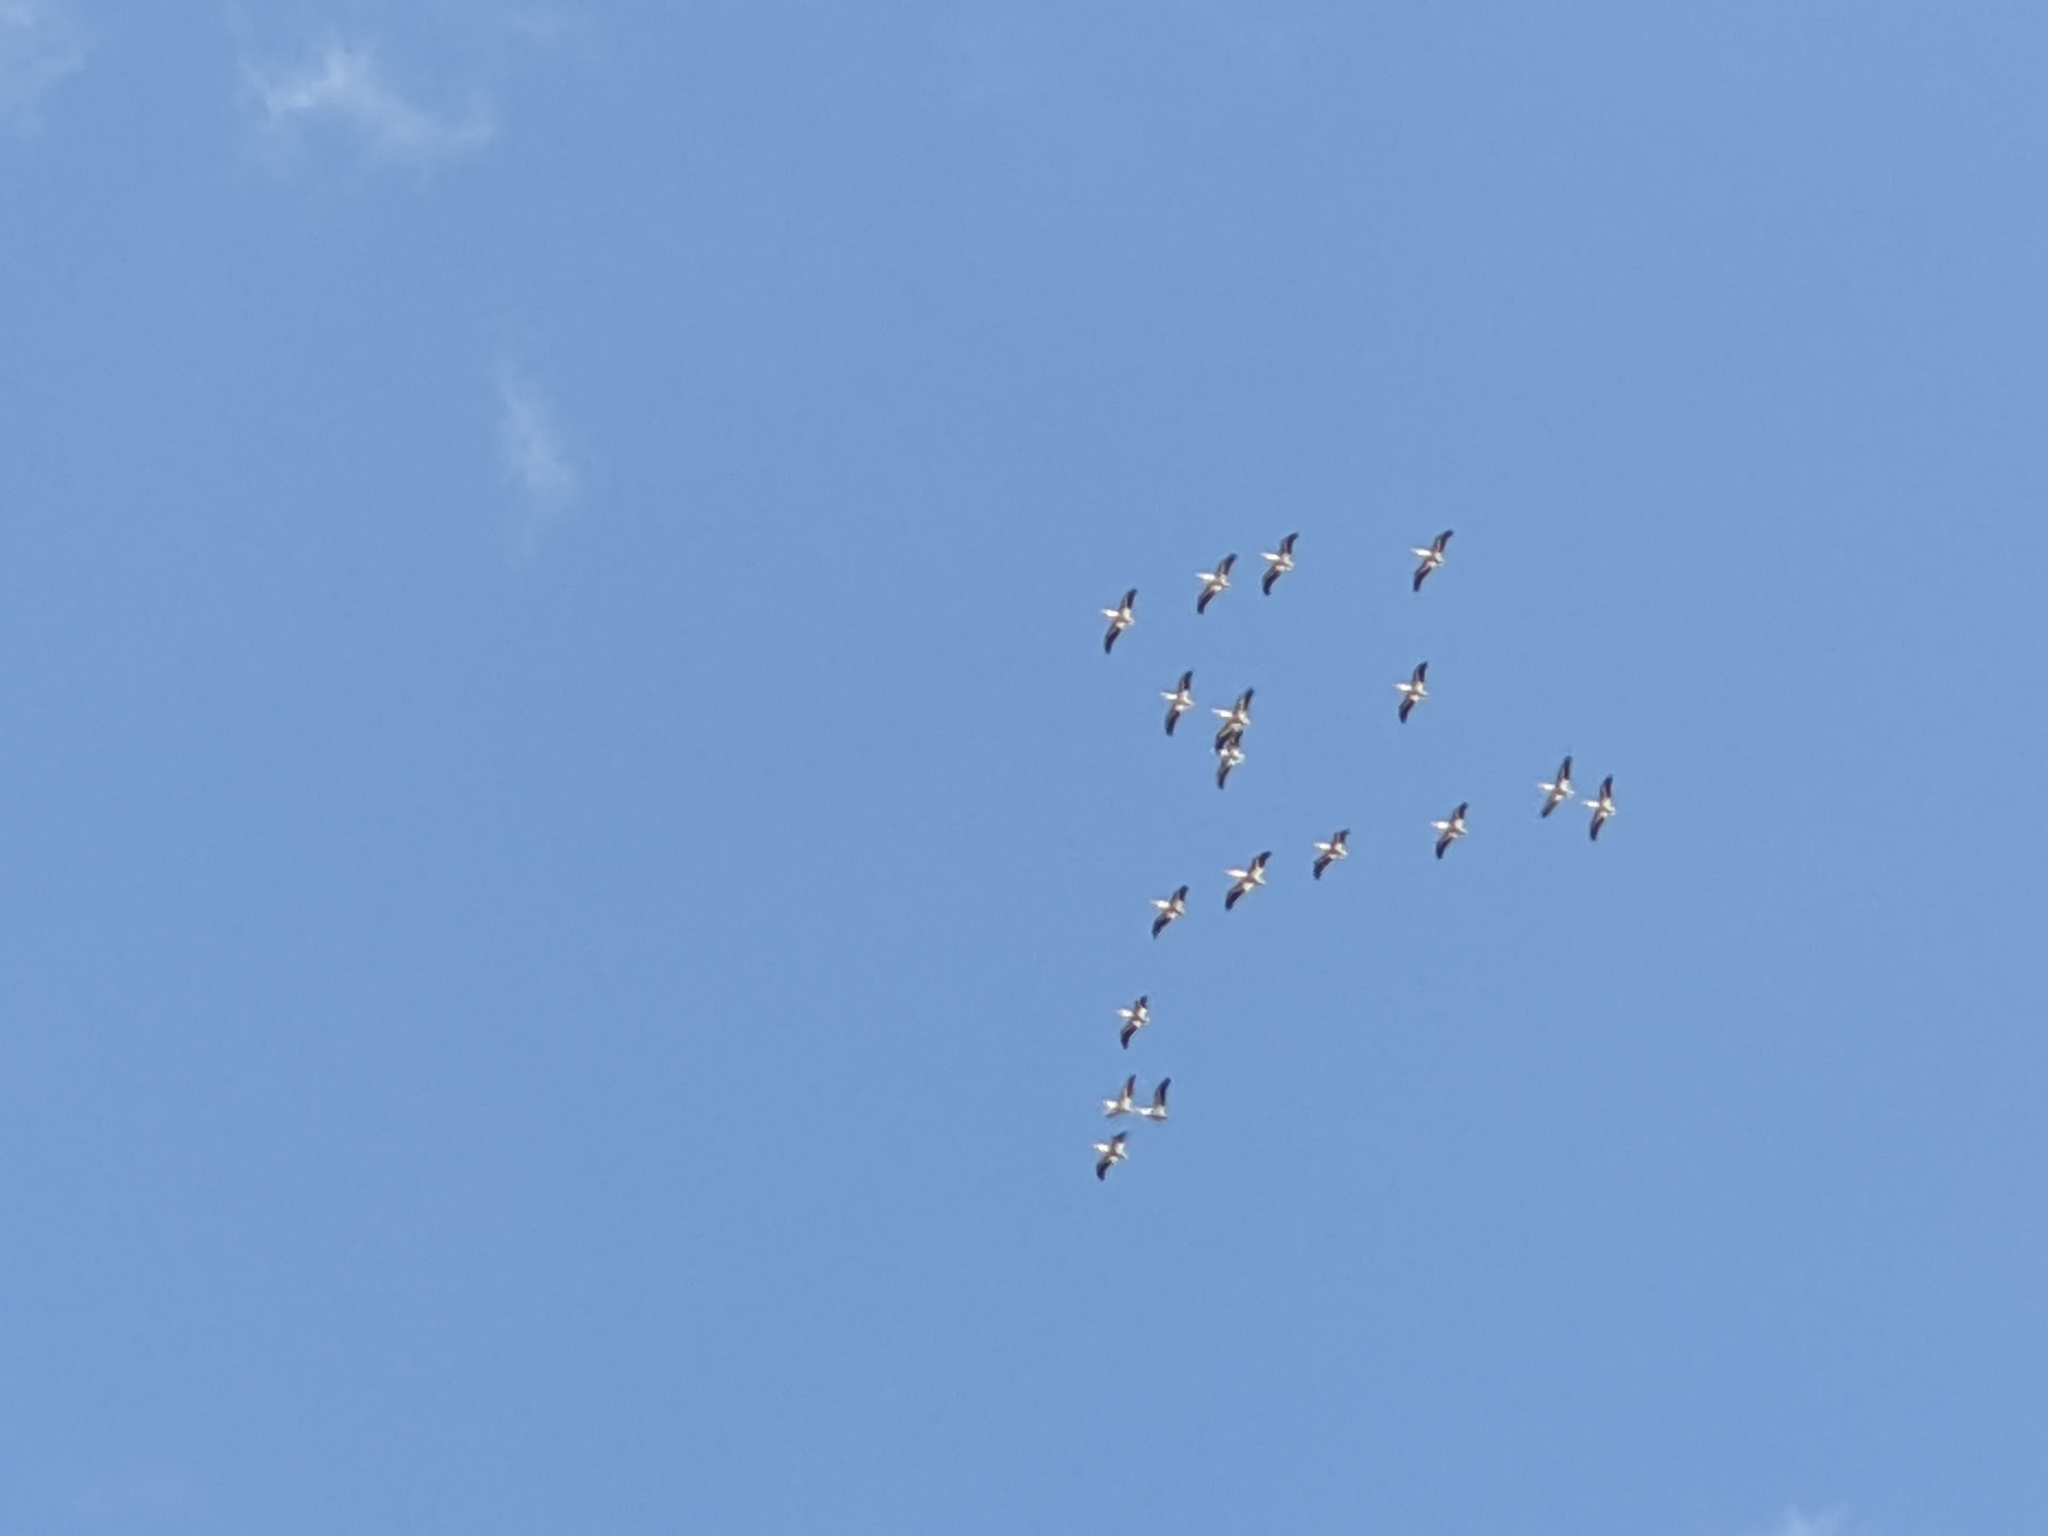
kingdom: Animalia
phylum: Chordata
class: Aves
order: Pelecaniformes
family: Pelecanidae
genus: Pelecanus
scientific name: Pelecanus erythrorhynchos
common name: American white pelican
